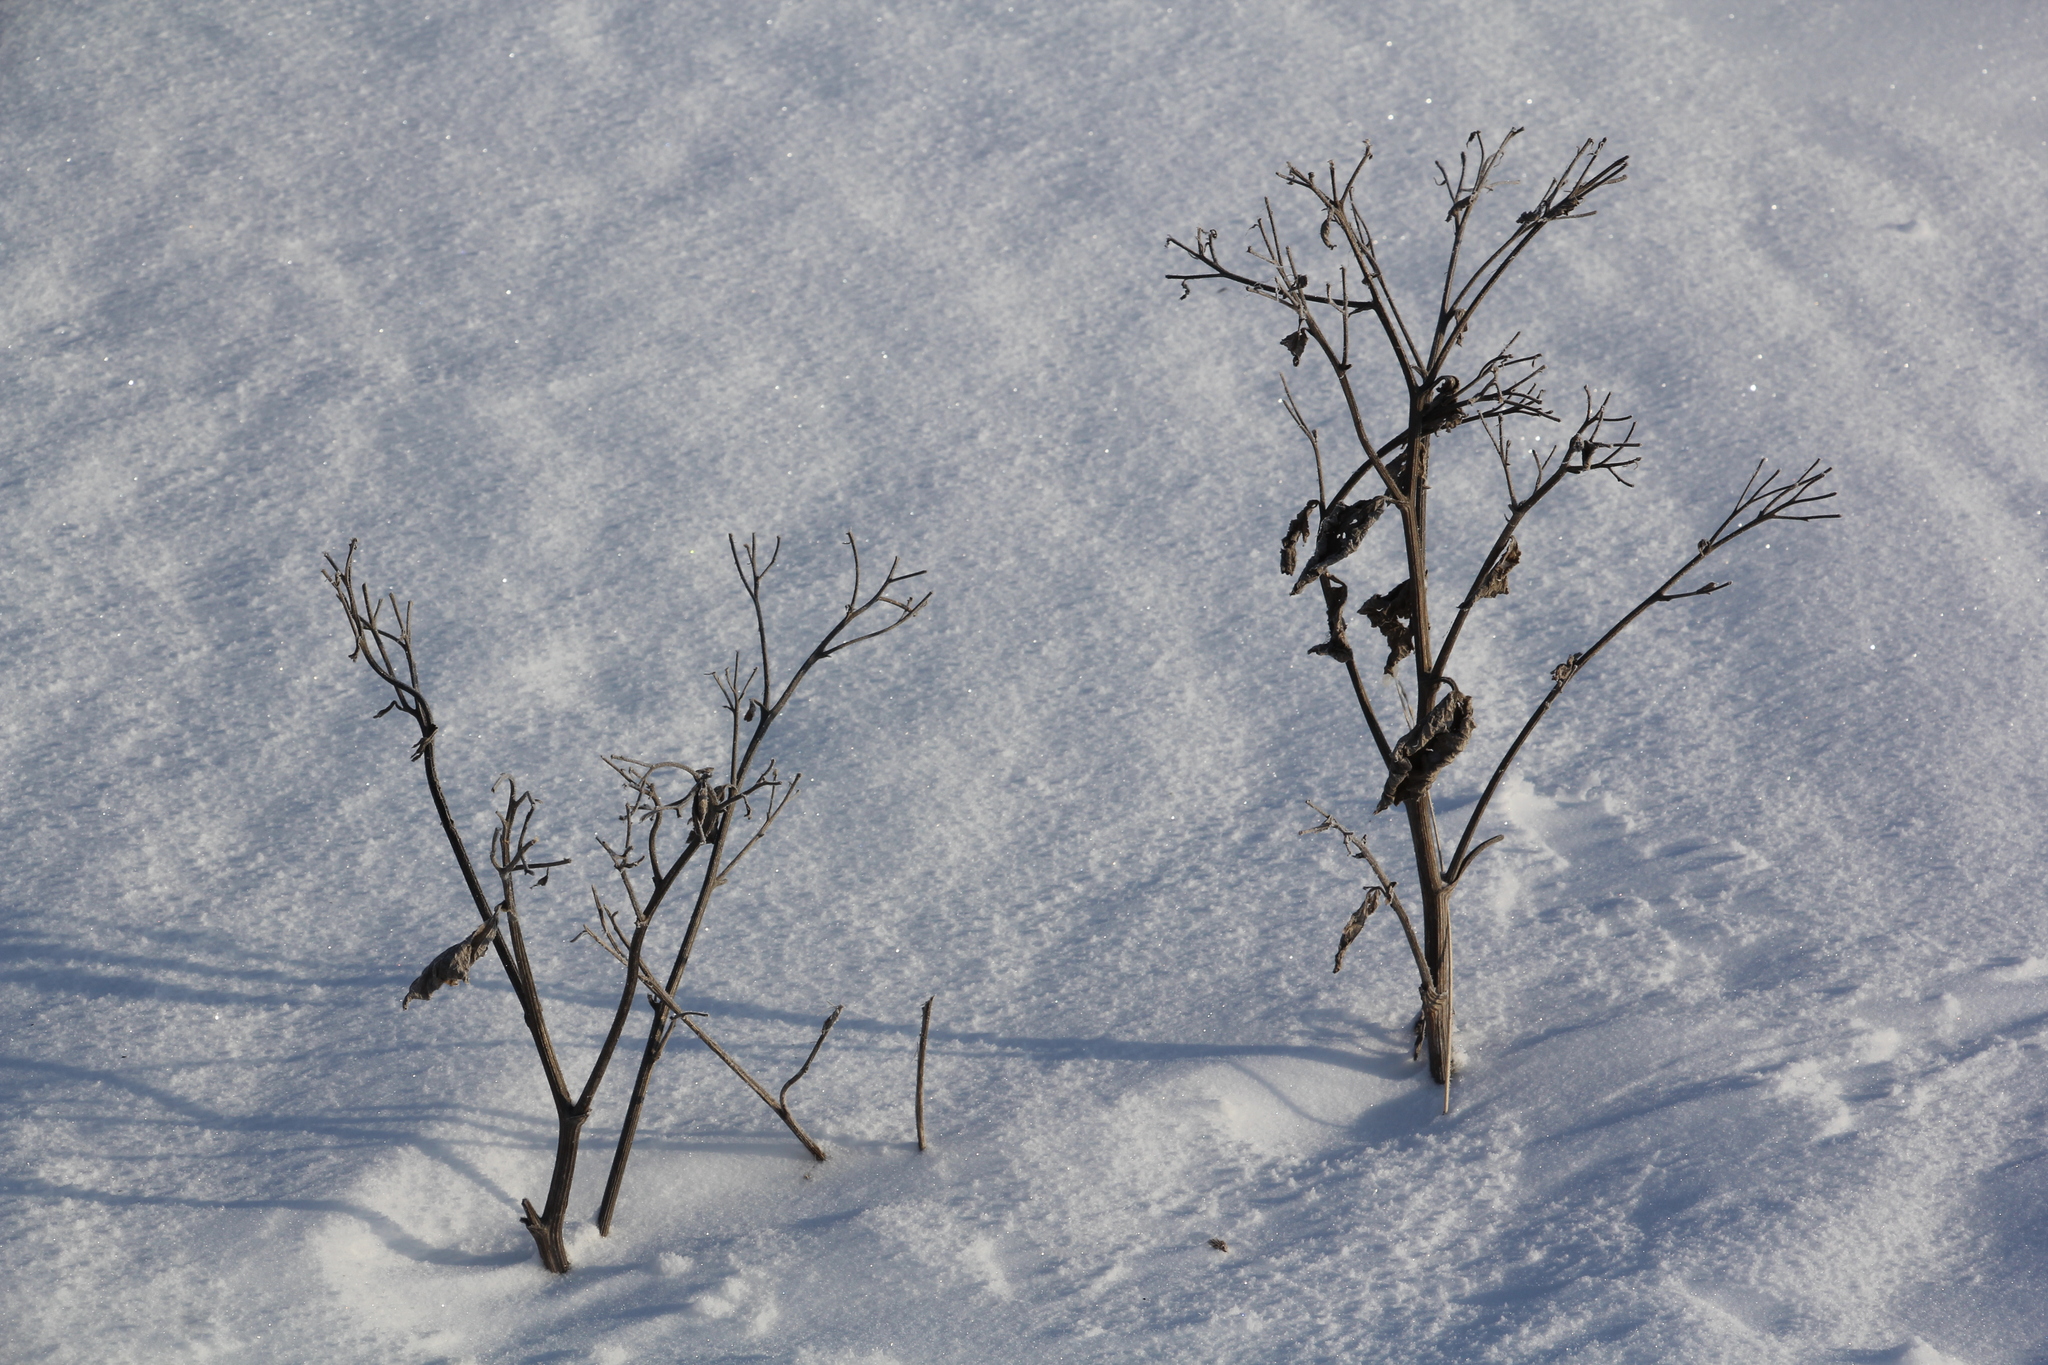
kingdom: Plantae
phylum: Tracheophyta
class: Magnoliopsida
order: Asterales
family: Asteraceae
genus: Arctium
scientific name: Arctium tomentosum
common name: Woolly burdock
